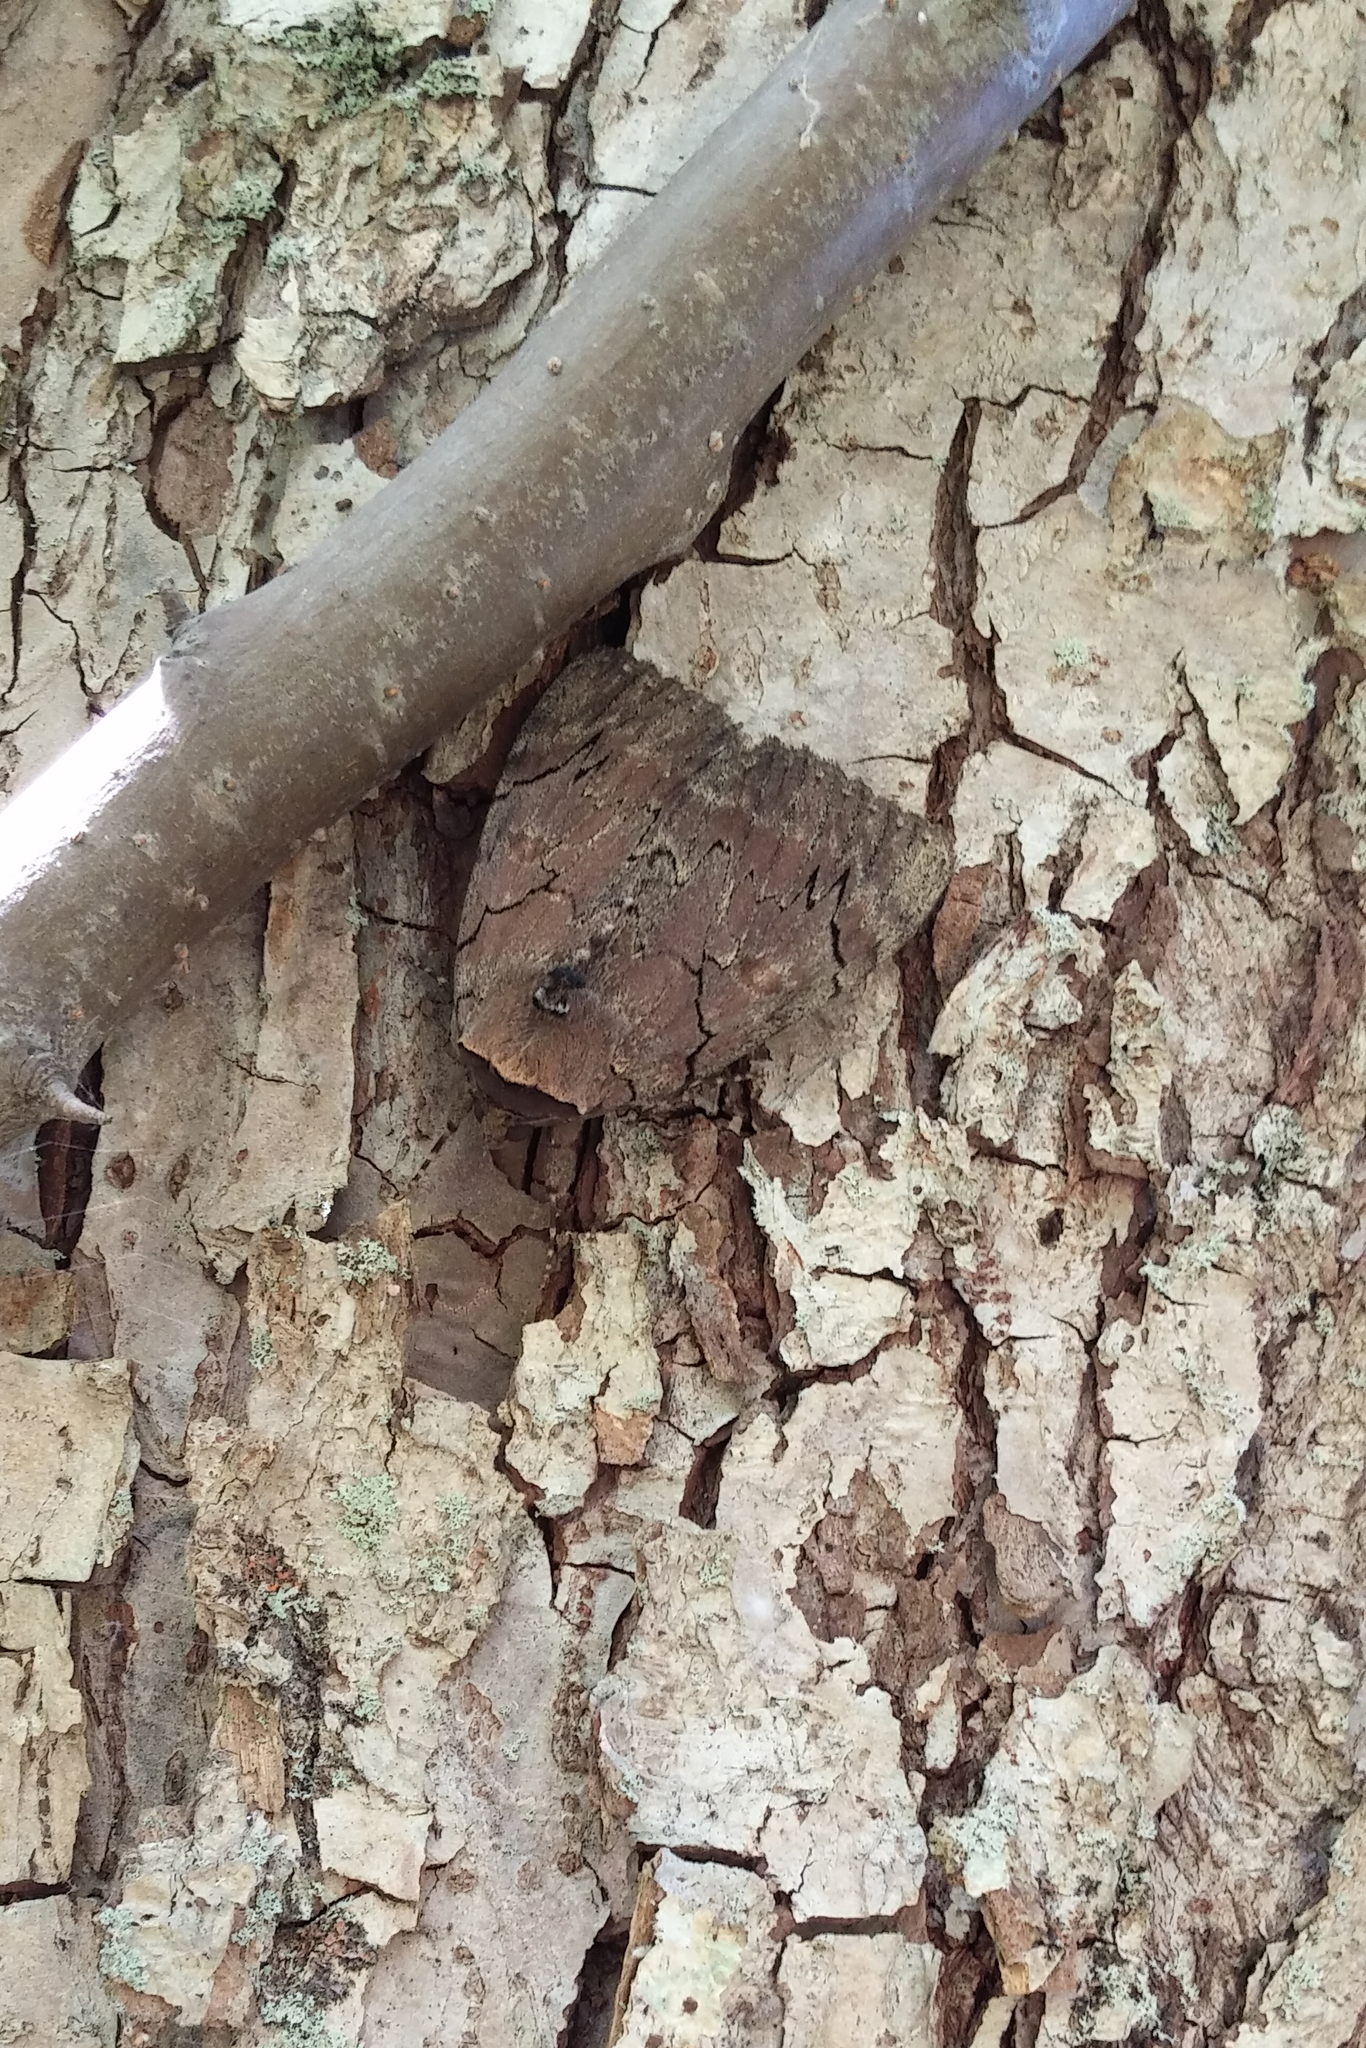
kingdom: Animalia
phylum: Arthropoda
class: Insecta
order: Lepidoptera
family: Erebidae
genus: Catocala
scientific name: Catocala cara
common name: Darling underwing
